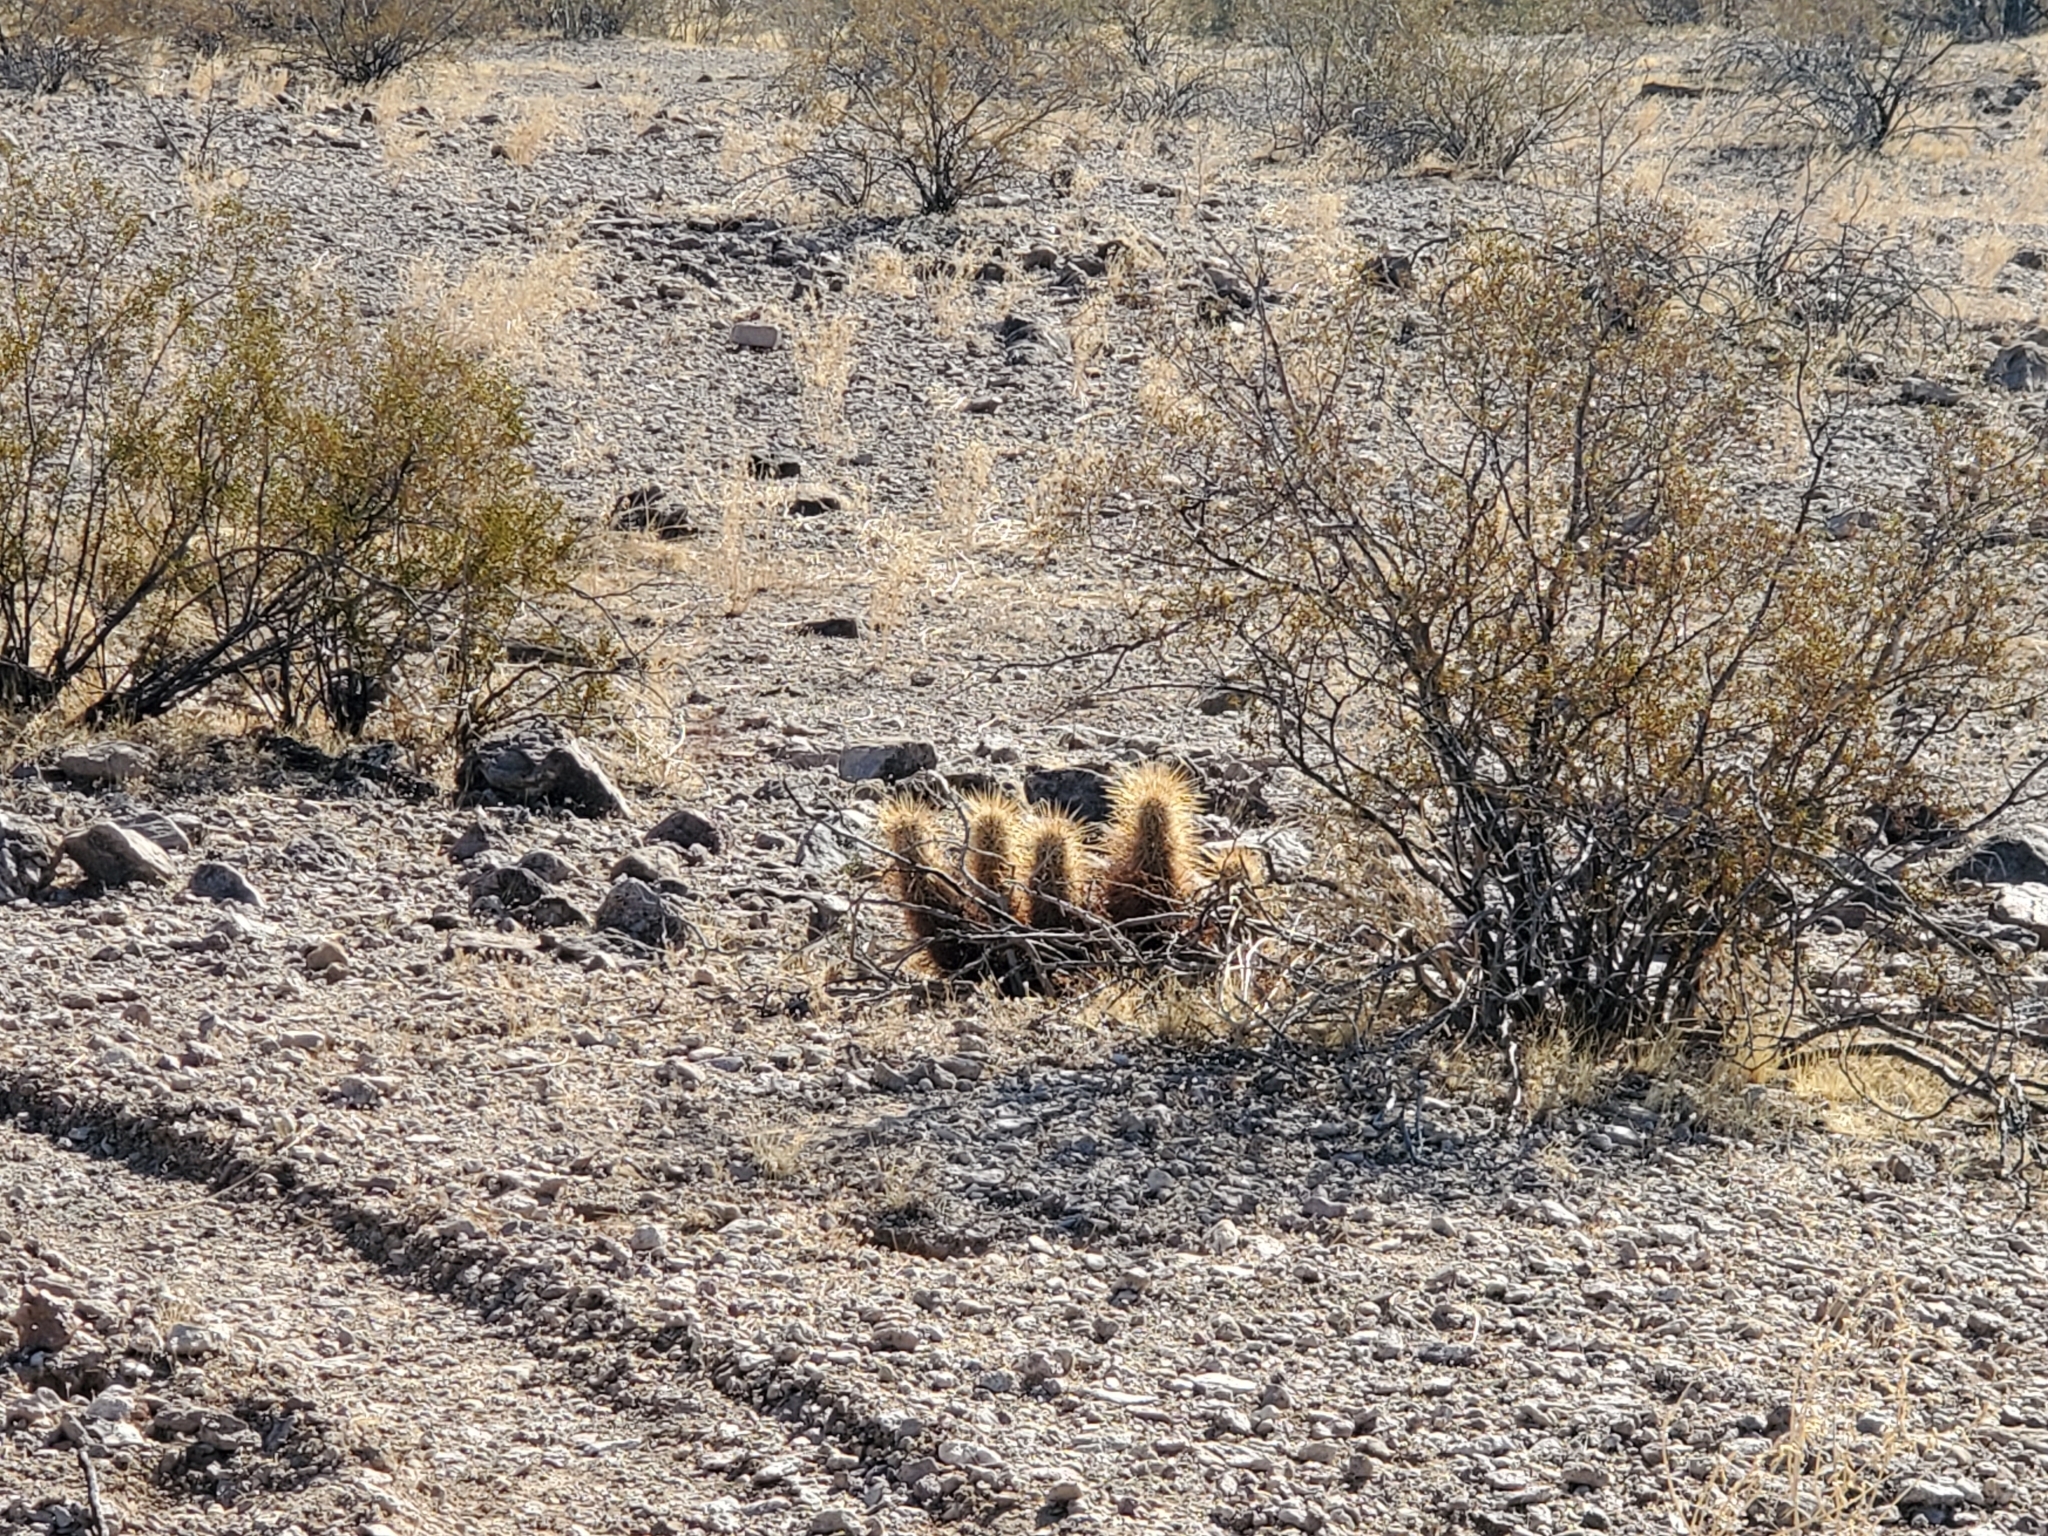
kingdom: Plantae
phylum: Tracheophyta
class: Magnoliopsida
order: Caryophyllales
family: Cactaceae
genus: Echinocereus
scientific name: Echinocereus engelmannii
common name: Engelmann's hedgehog cactus
